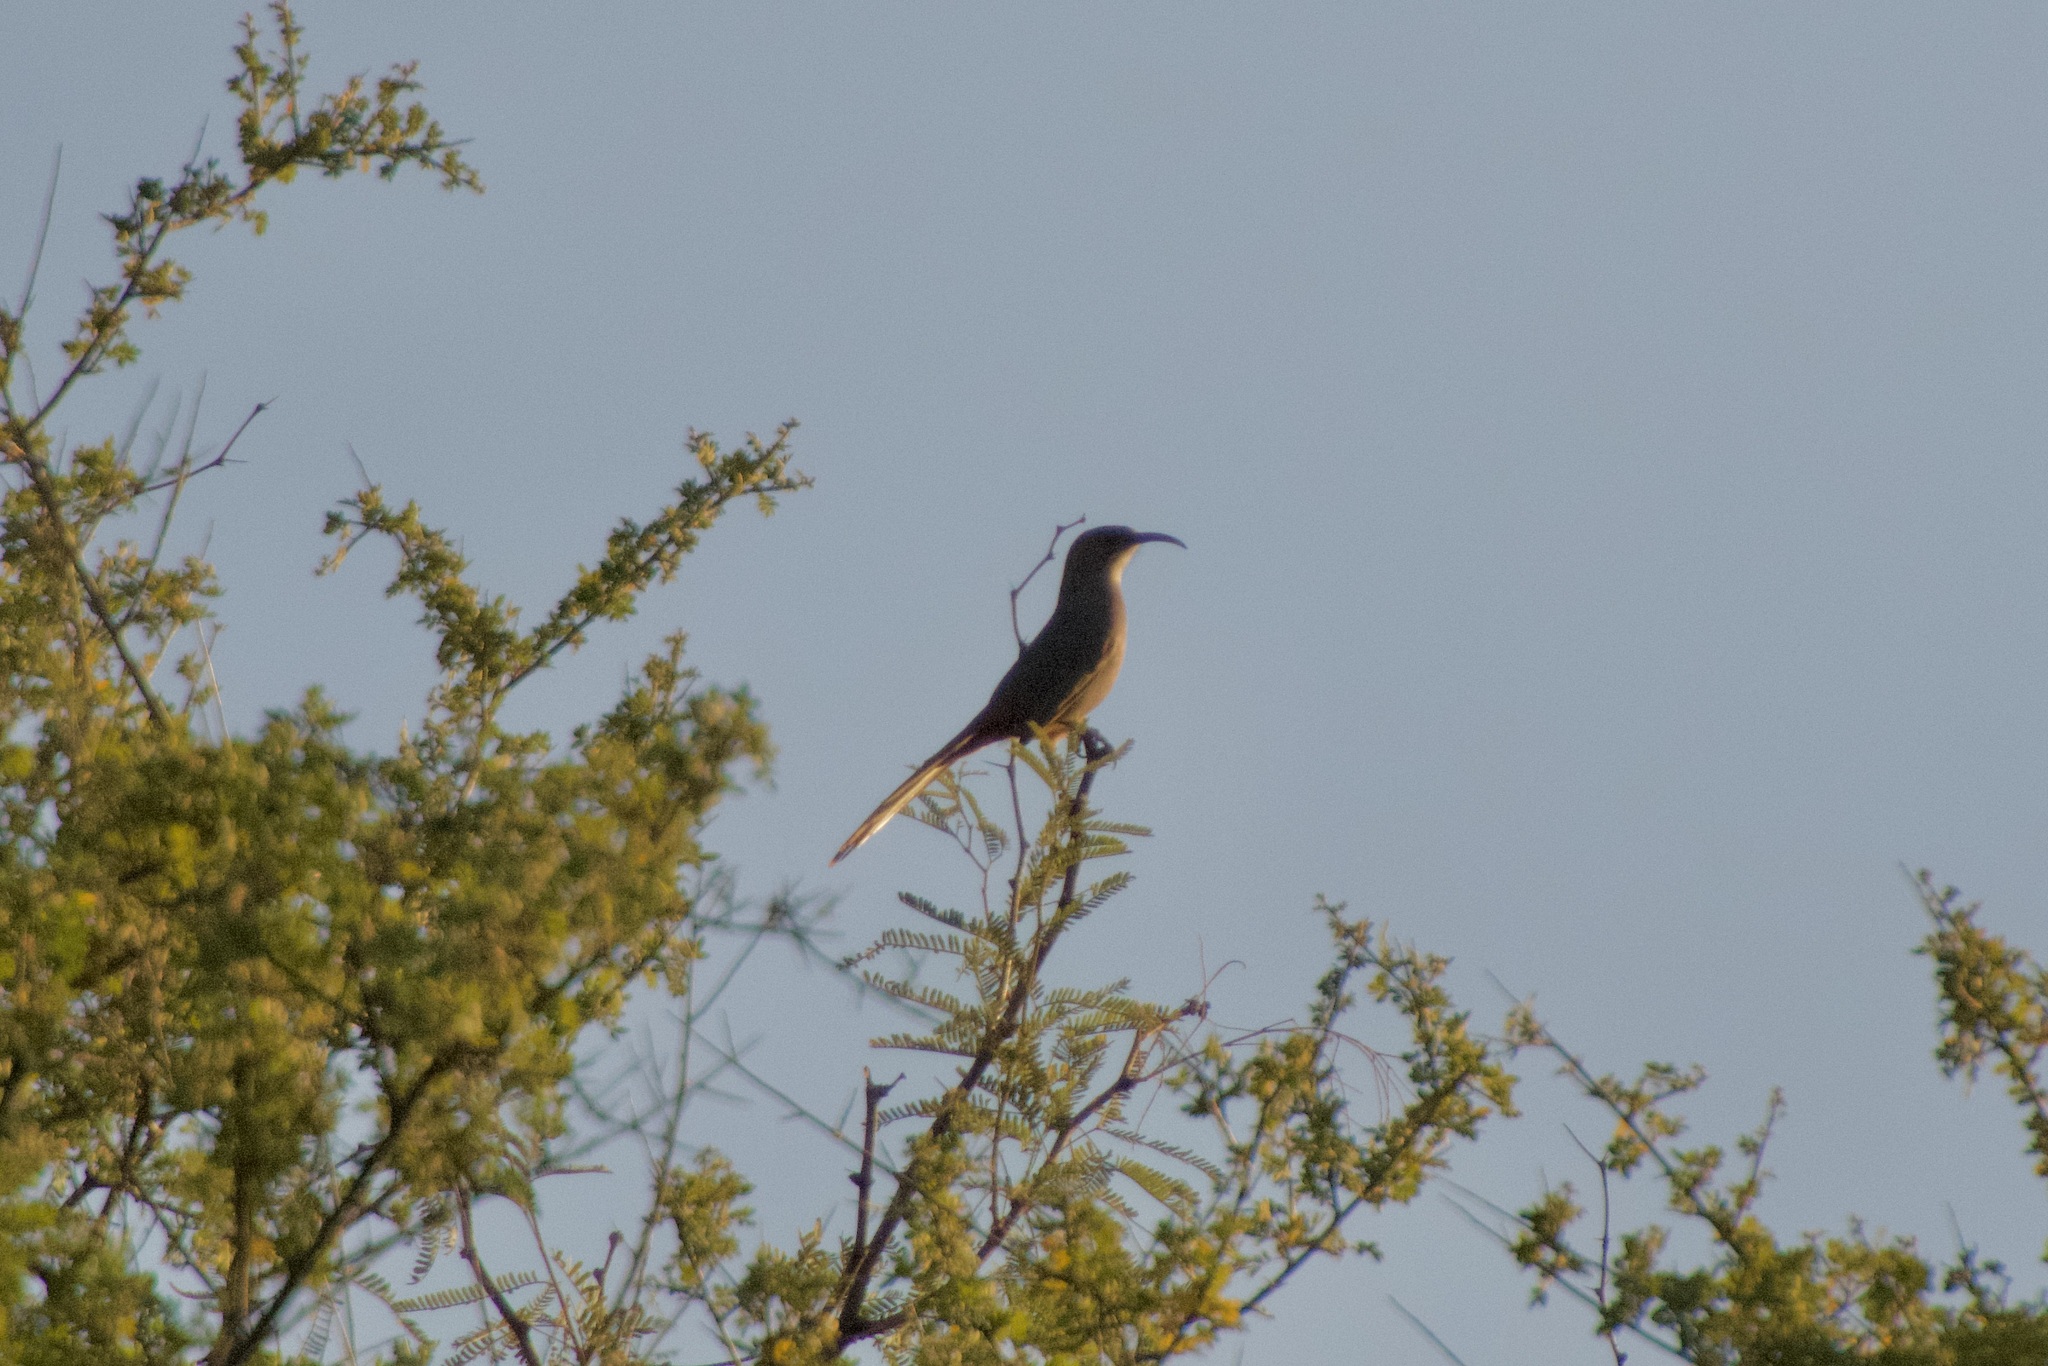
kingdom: Animalia
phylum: Chordata
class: Aves
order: Passeriformes
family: Mimidae
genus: Toxostoma
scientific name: Toxostoma crissale
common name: Crissal thrasher
